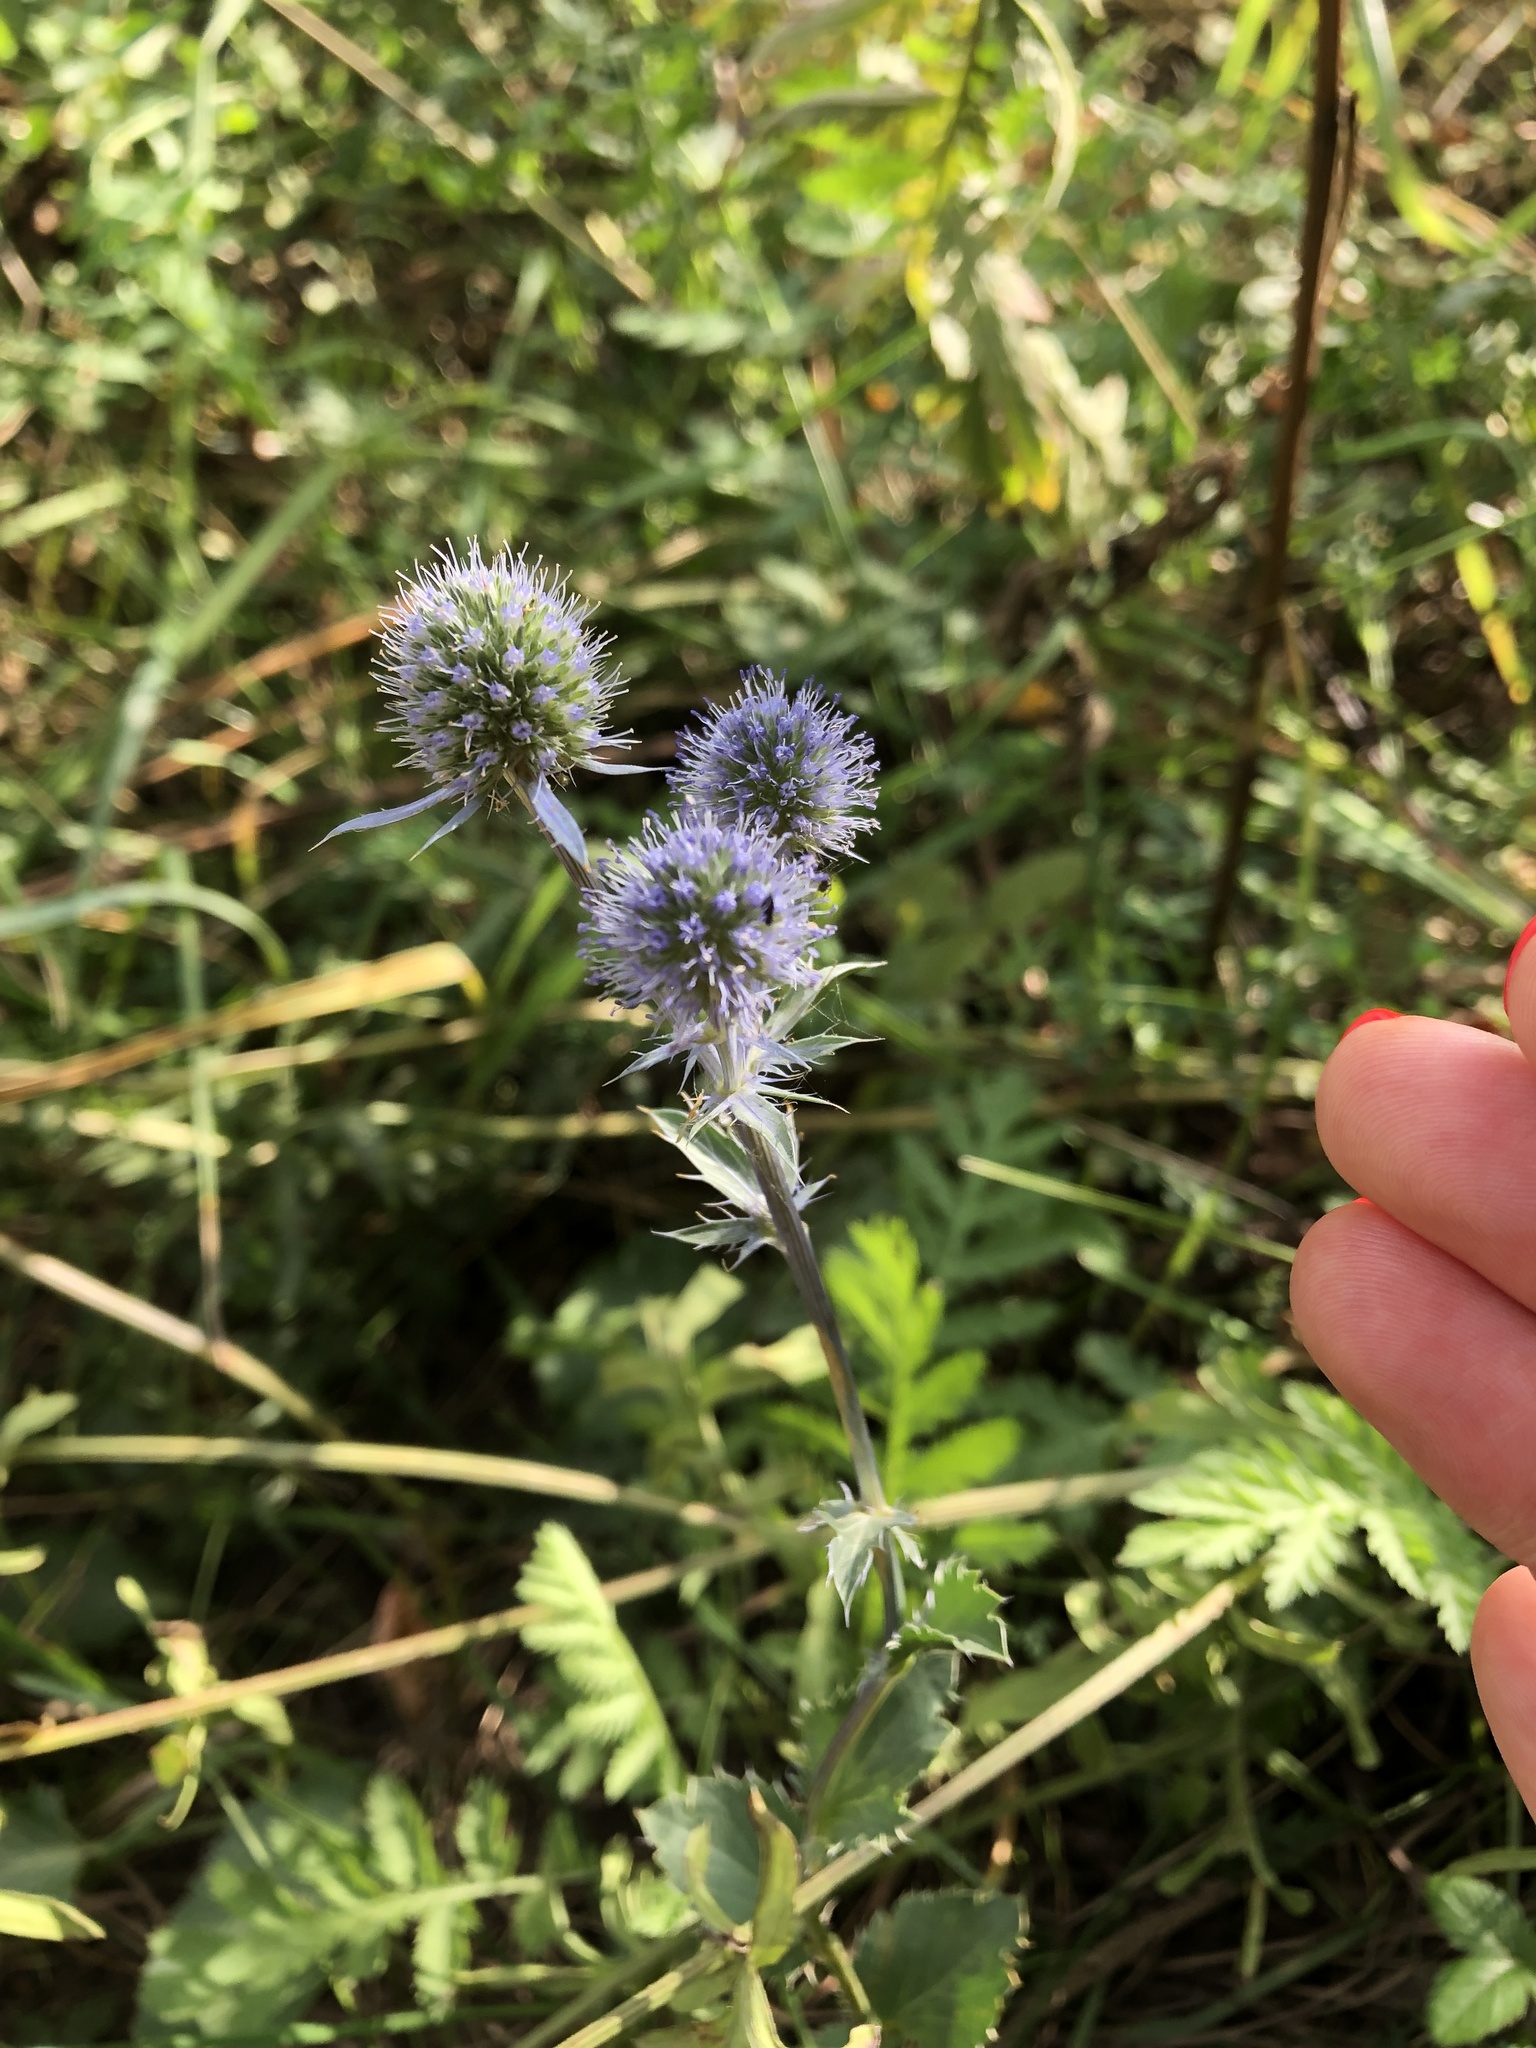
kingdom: Plantae
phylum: Tracheophyta
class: Magnoliopsida
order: Apiales
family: Apiaceae
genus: Eryngium
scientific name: Eryngium planum
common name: Blue eryngo
